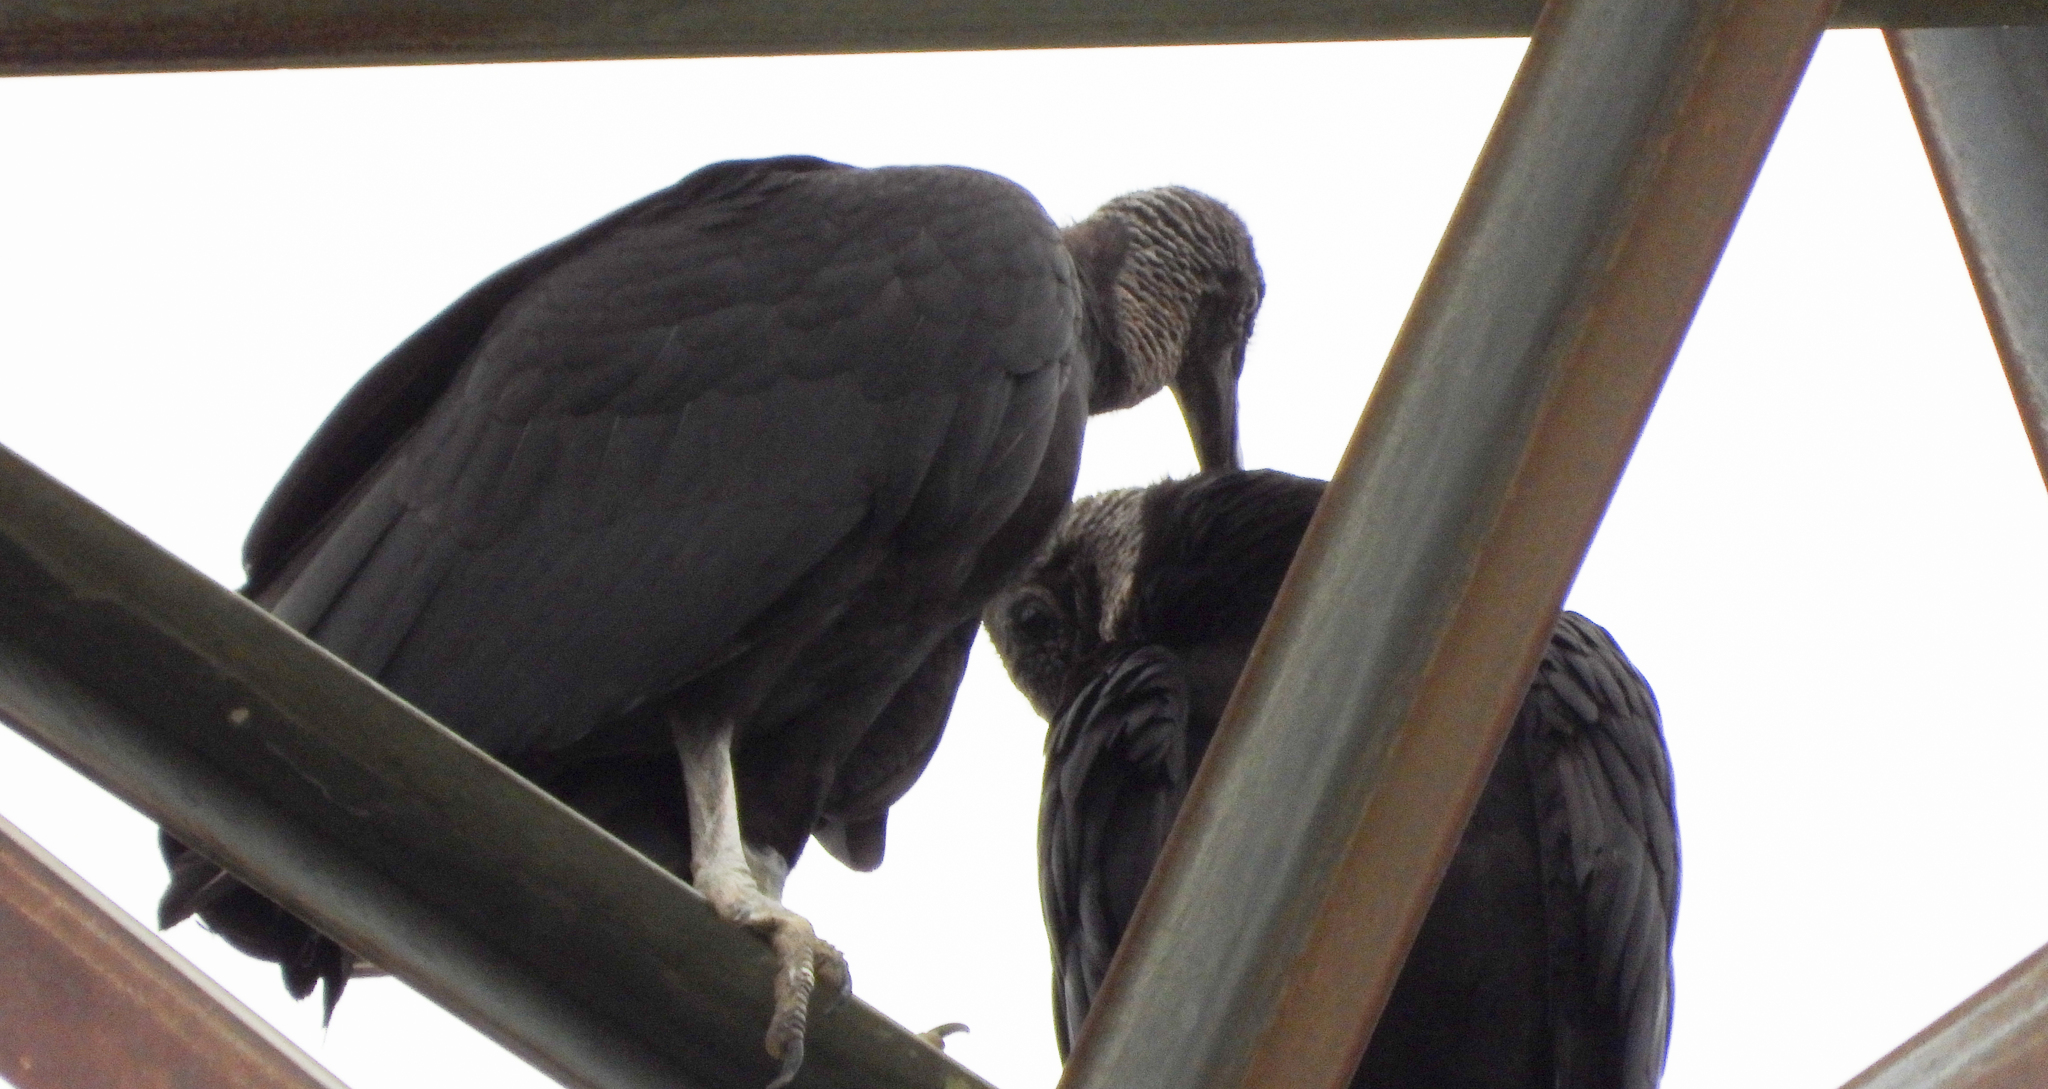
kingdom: Animalia
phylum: Chordata
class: Aves
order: Accipitriformes
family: Cathartidae
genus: Coragyps
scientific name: Coragyps atratus
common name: Black vulture
